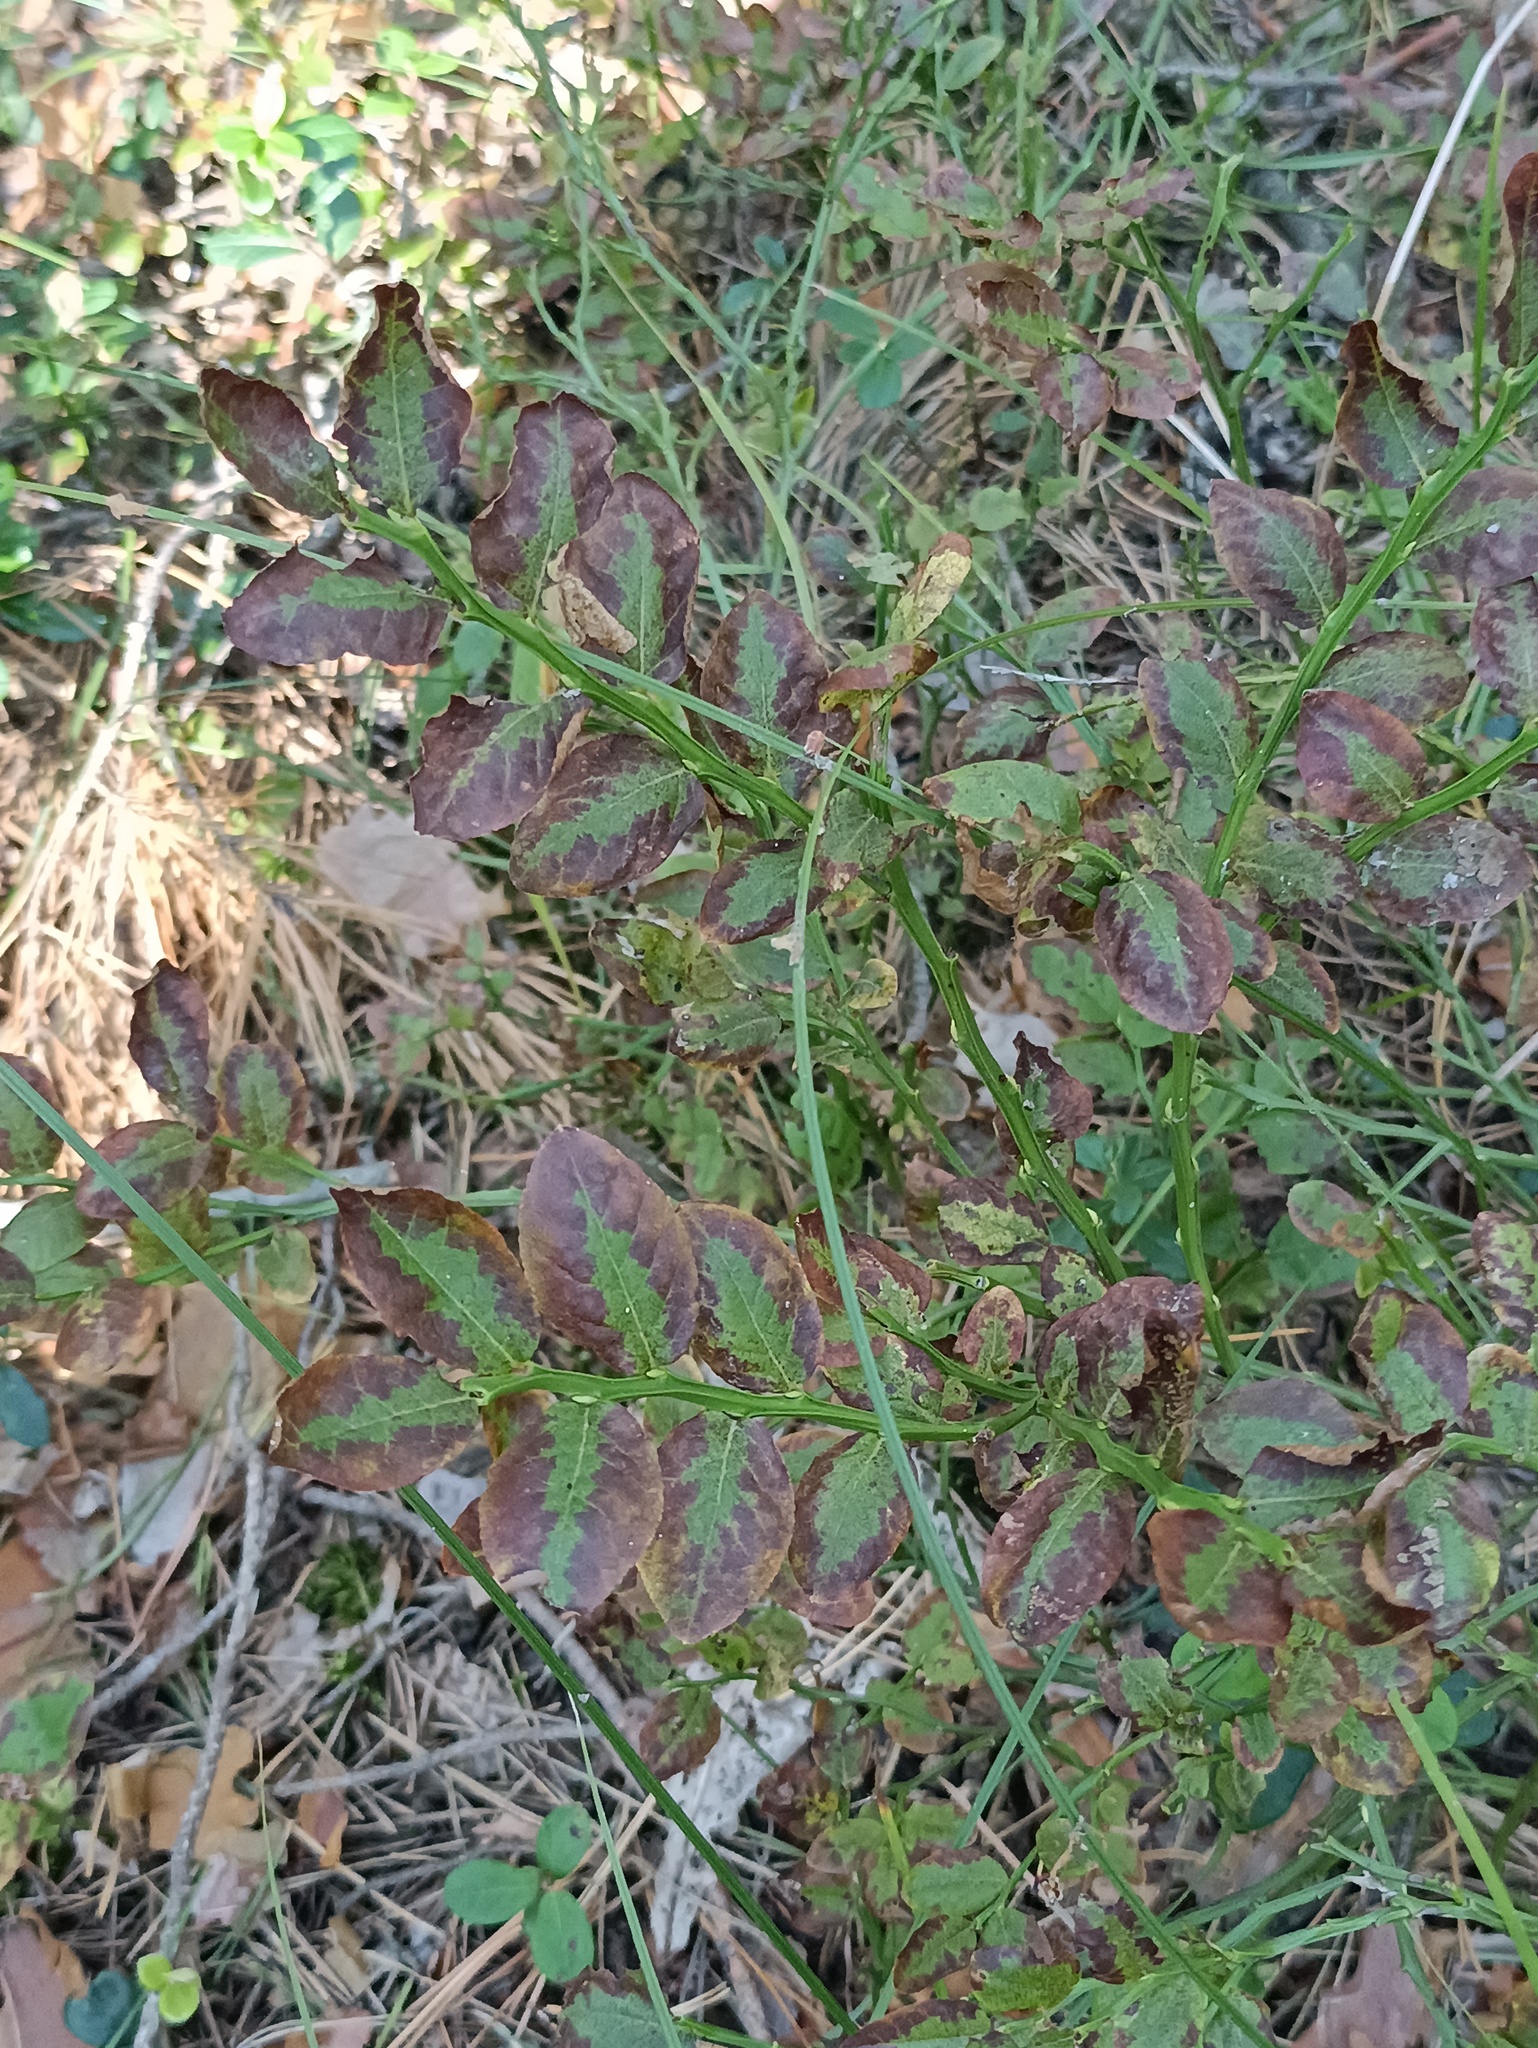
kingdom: Plantae
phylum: Tracheophyta
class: Magnoliopsida
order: Ericales
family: Ericaceae
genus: Vaccinium
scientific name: Vaccinium myrtillus
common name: Bilberry
